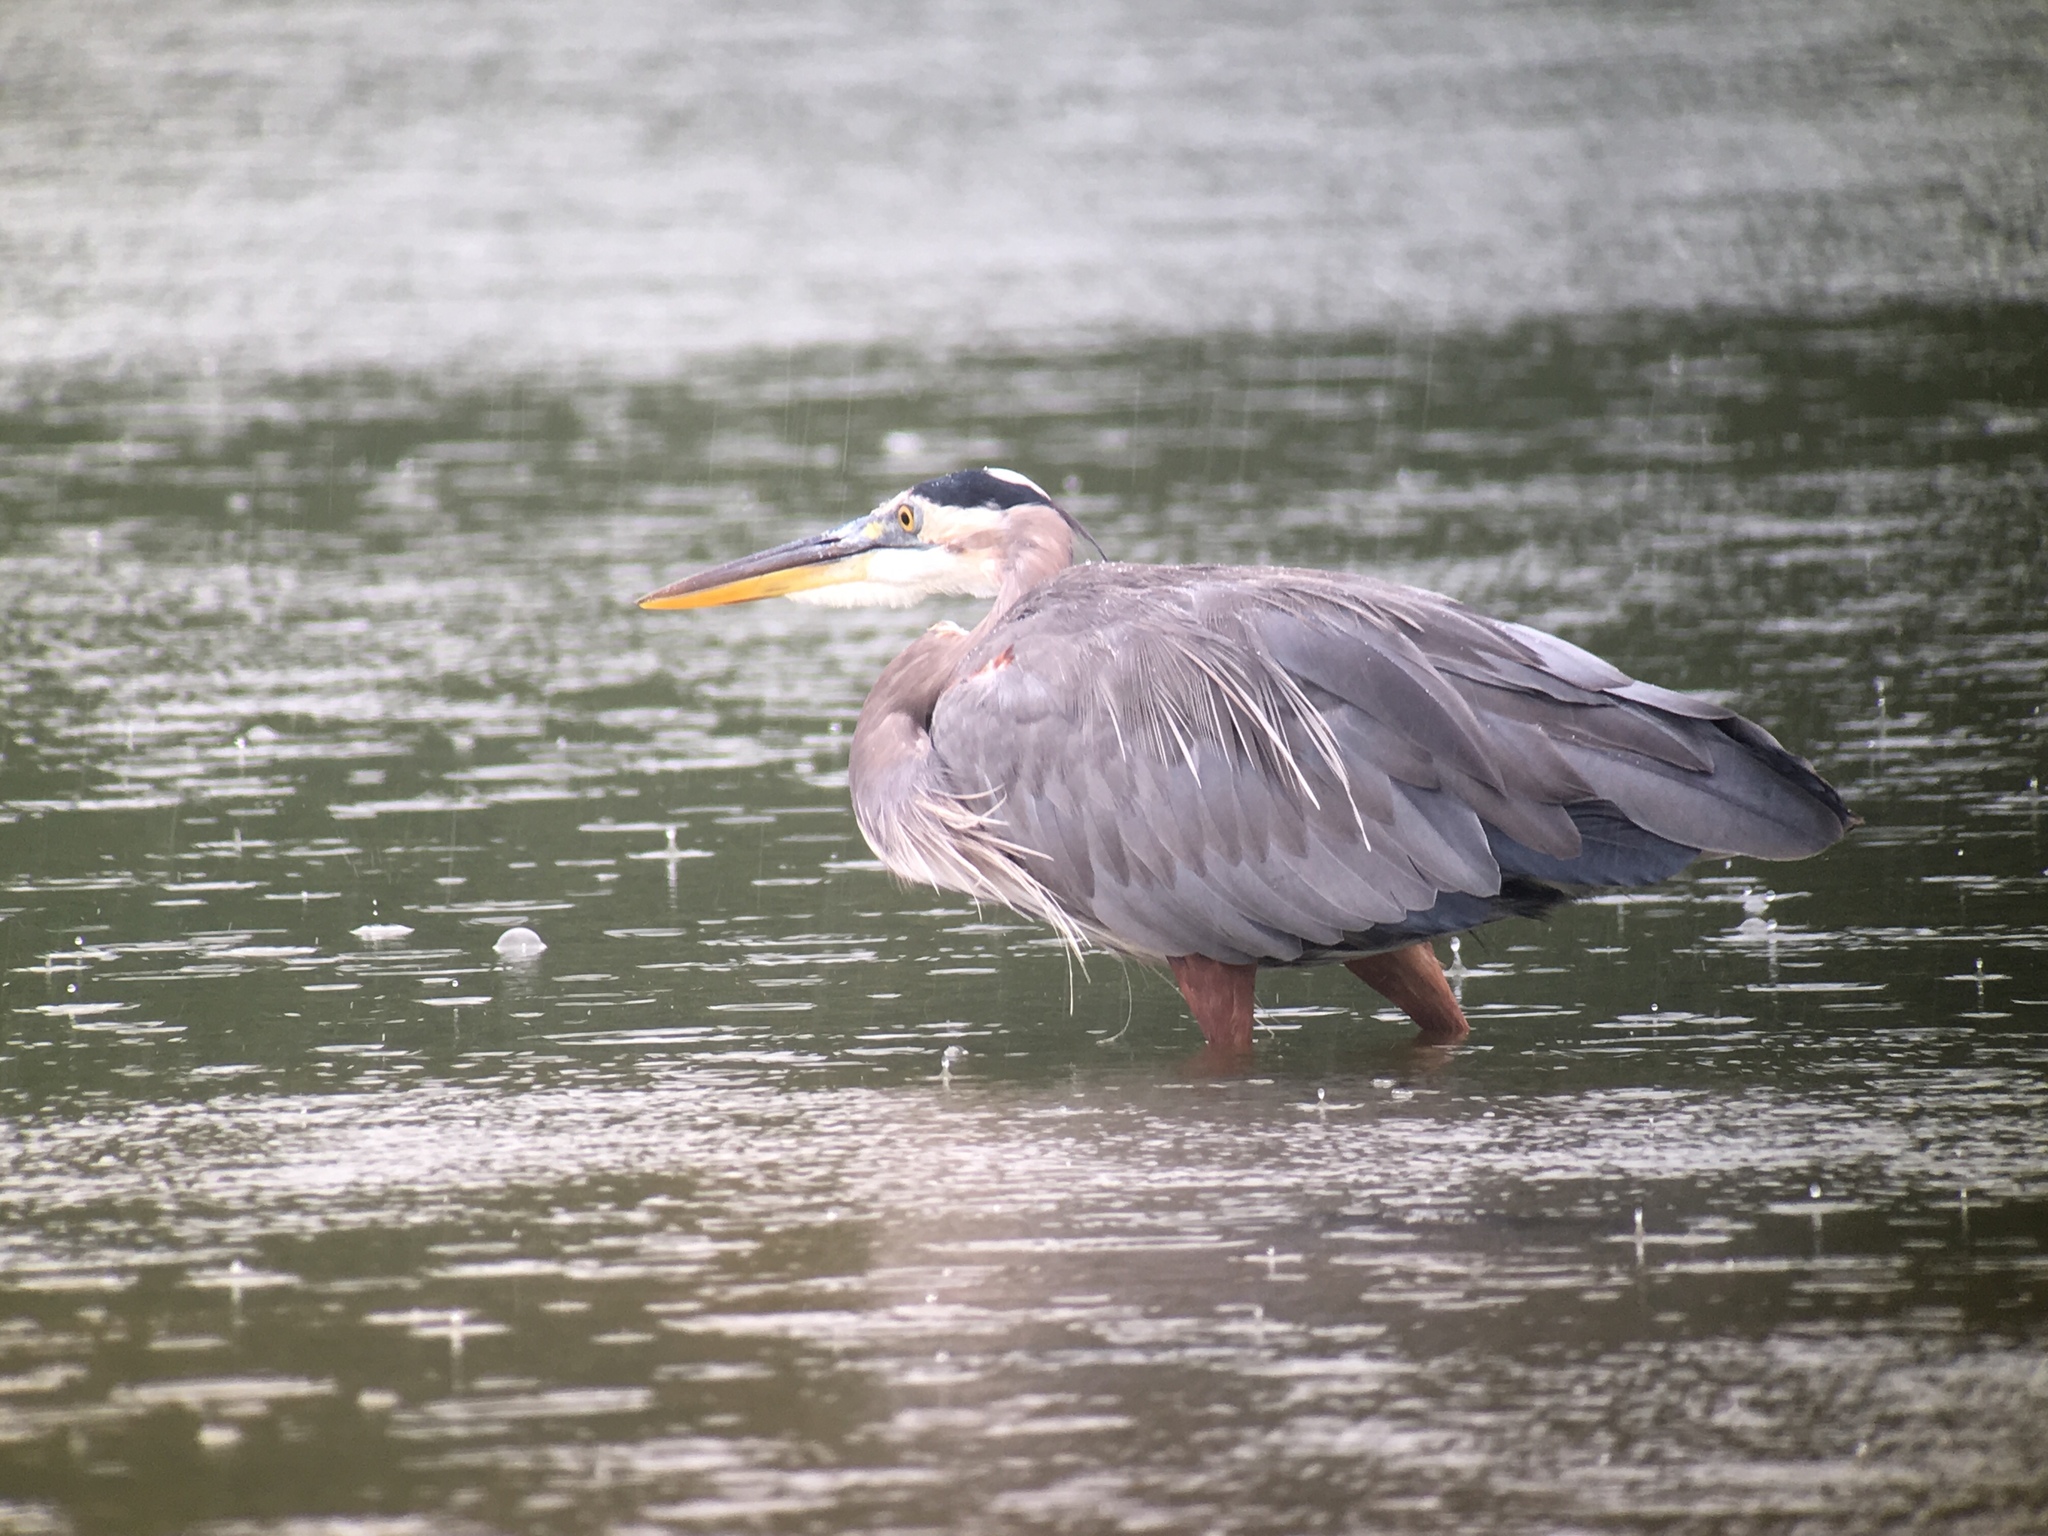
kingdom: Animalia
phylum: Chordata
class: Aves
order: Pelecaniformes
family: Ardeidae
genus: Ardea
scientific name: Ardea herodias
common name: Great blue heron
